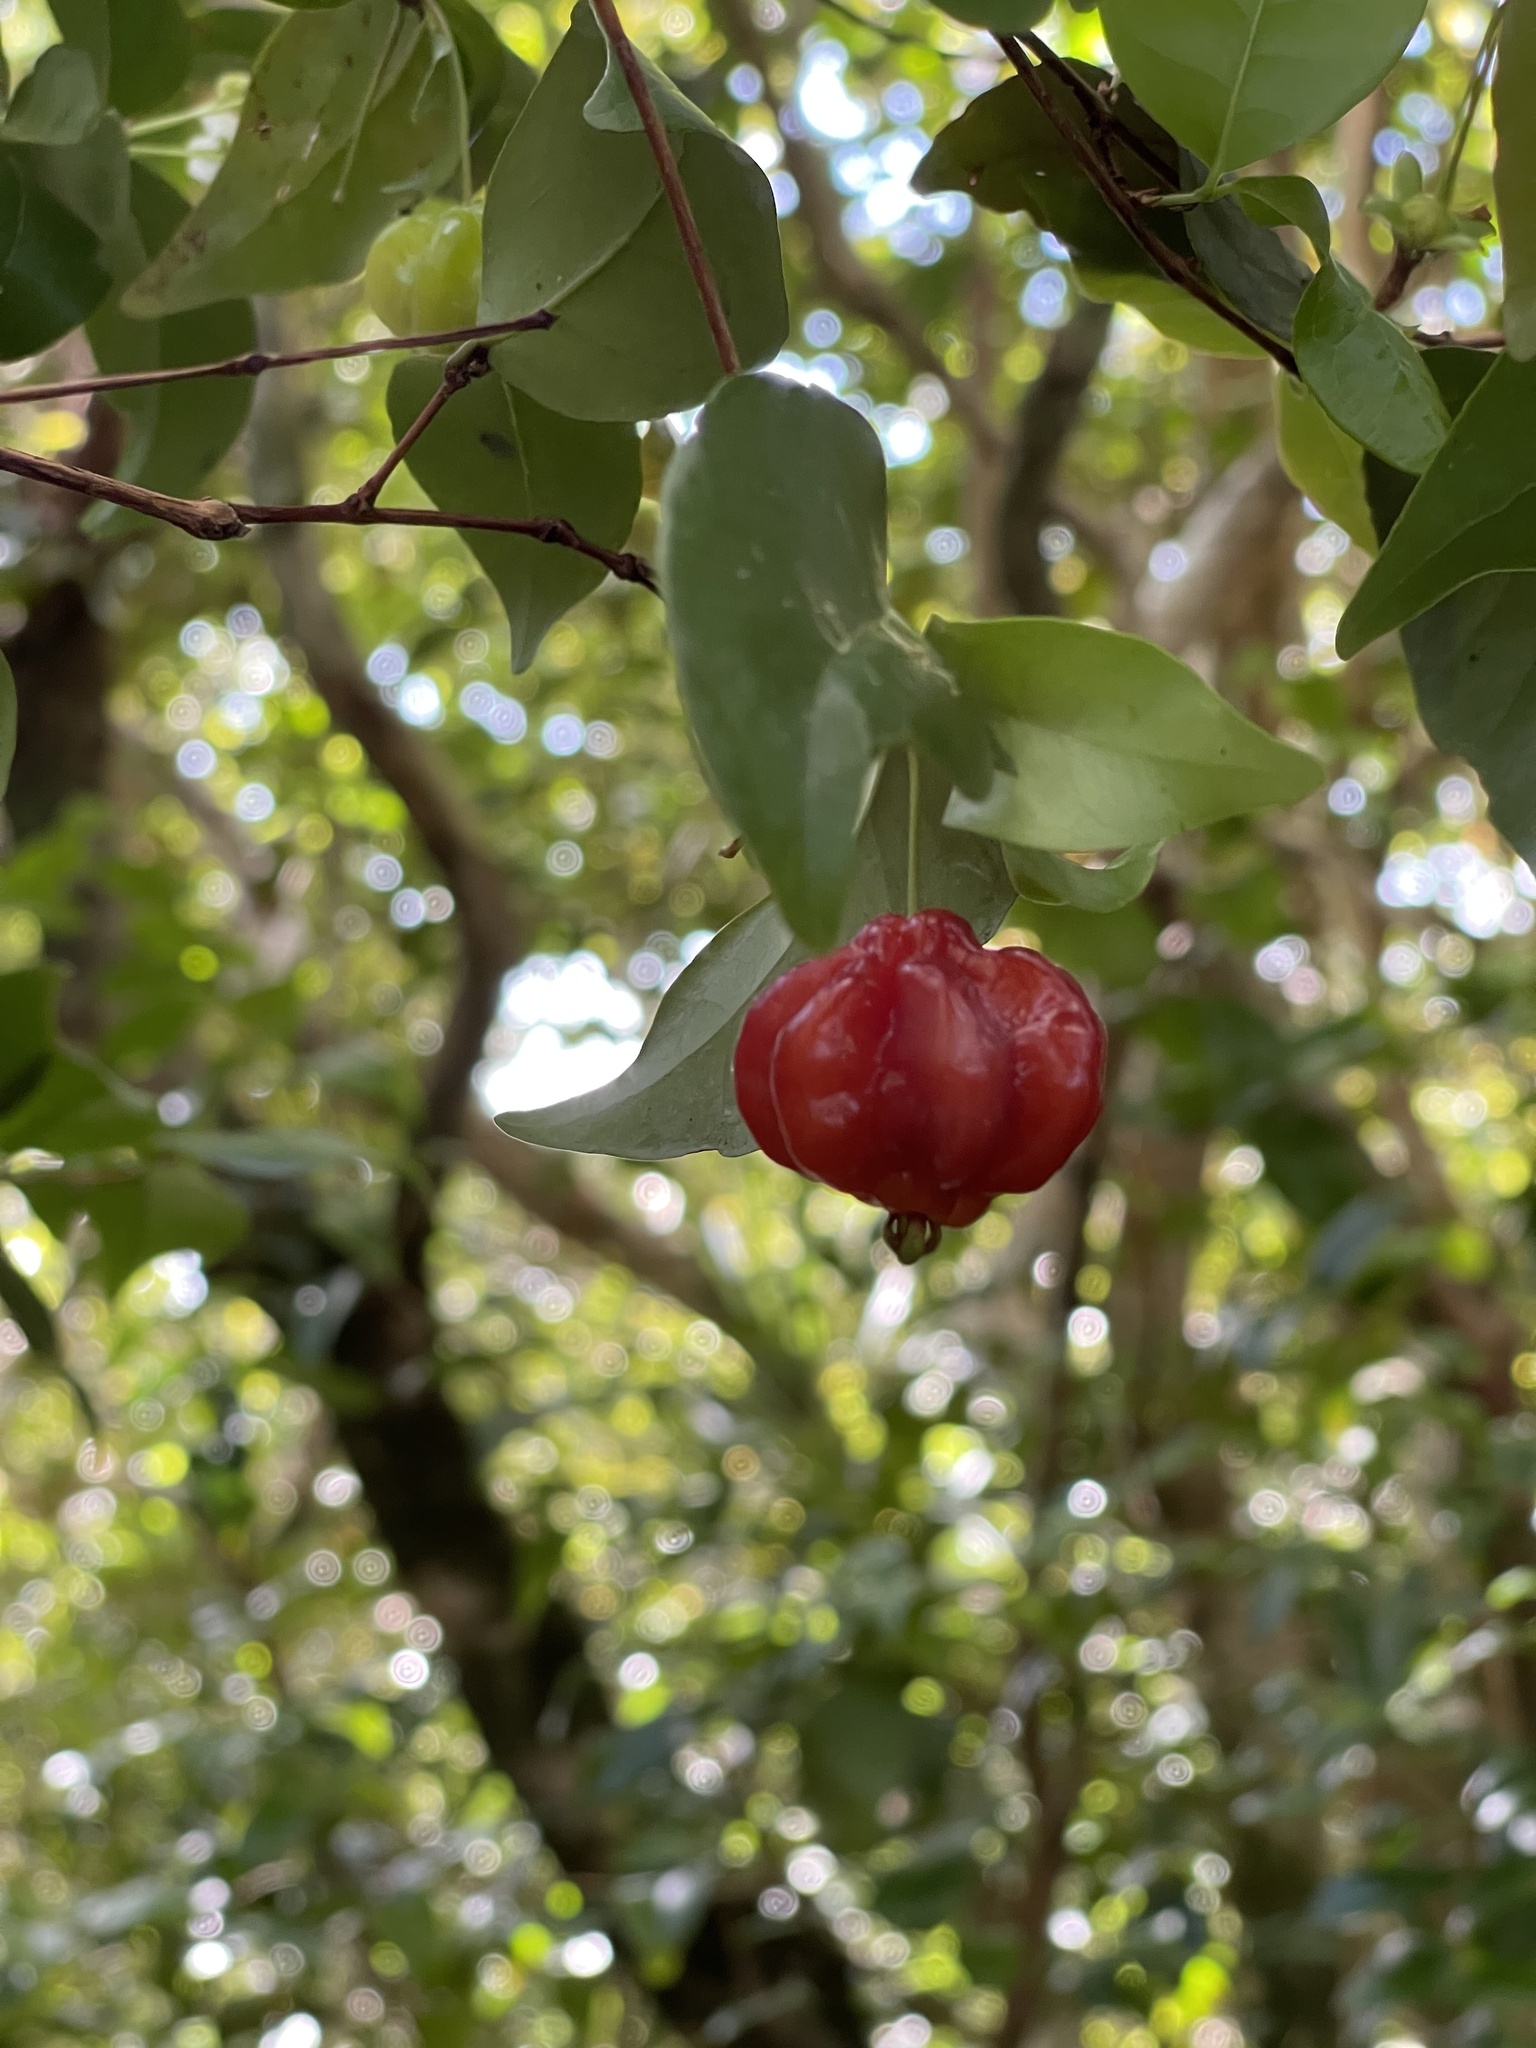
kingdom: Plantae
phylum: Tracheophyta
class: Magnoliopsida
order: Myrtales
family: Myrtaceae
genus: Eugenia
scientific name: Eugenia uniflora
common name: Surinam cherry
